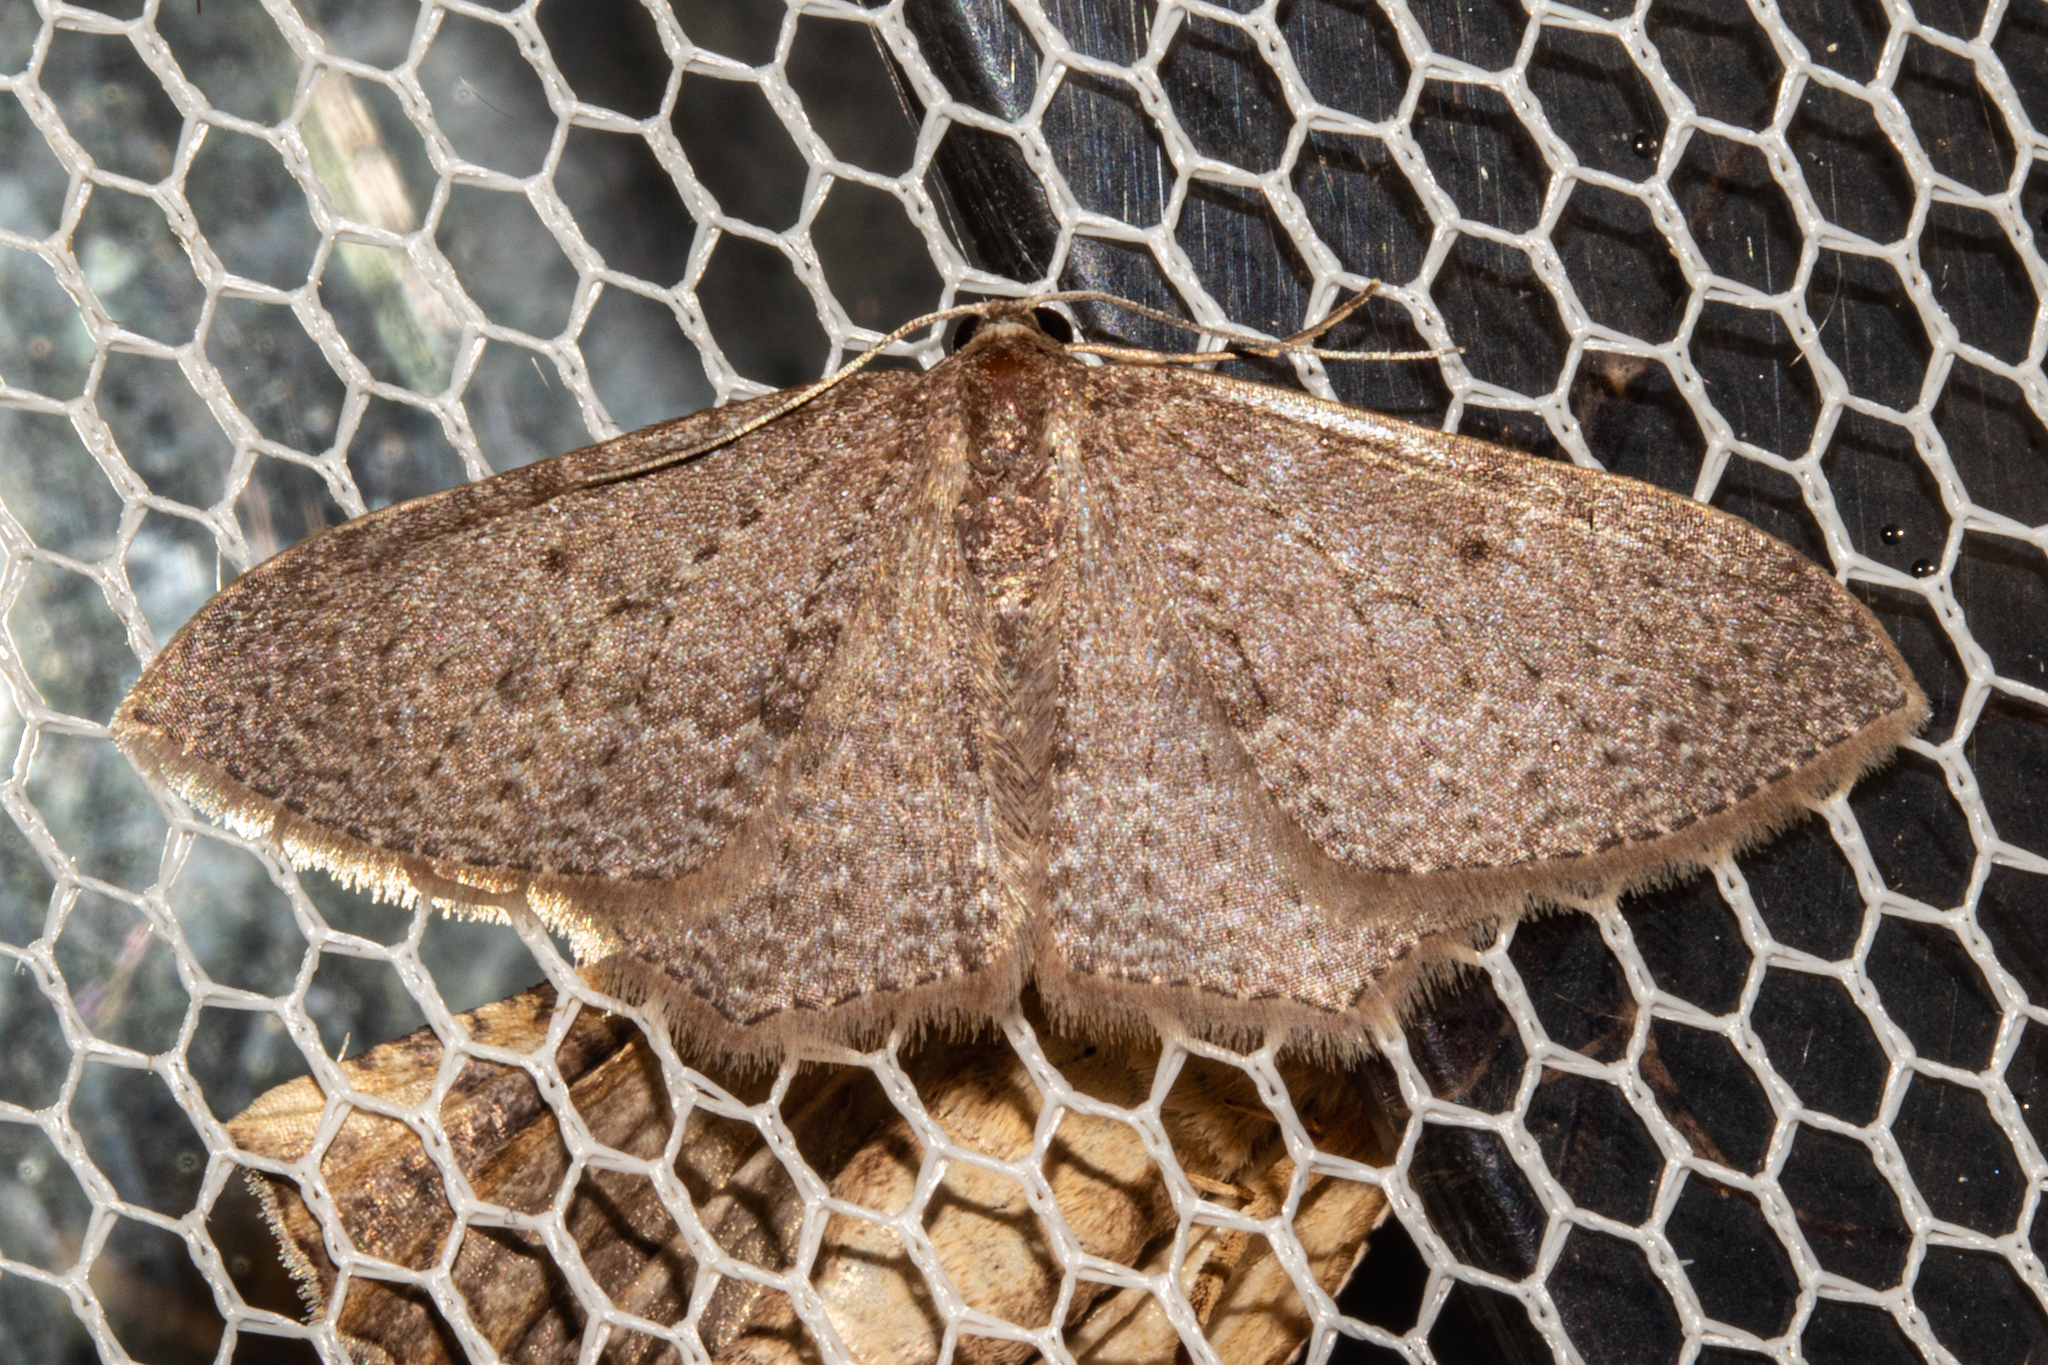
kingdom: Animalia
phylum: Arthropoda
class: Insecta
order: Lepidoptera
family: Geometridae
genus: Poecilasthena
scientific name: Poecilasthena subpurpureata
